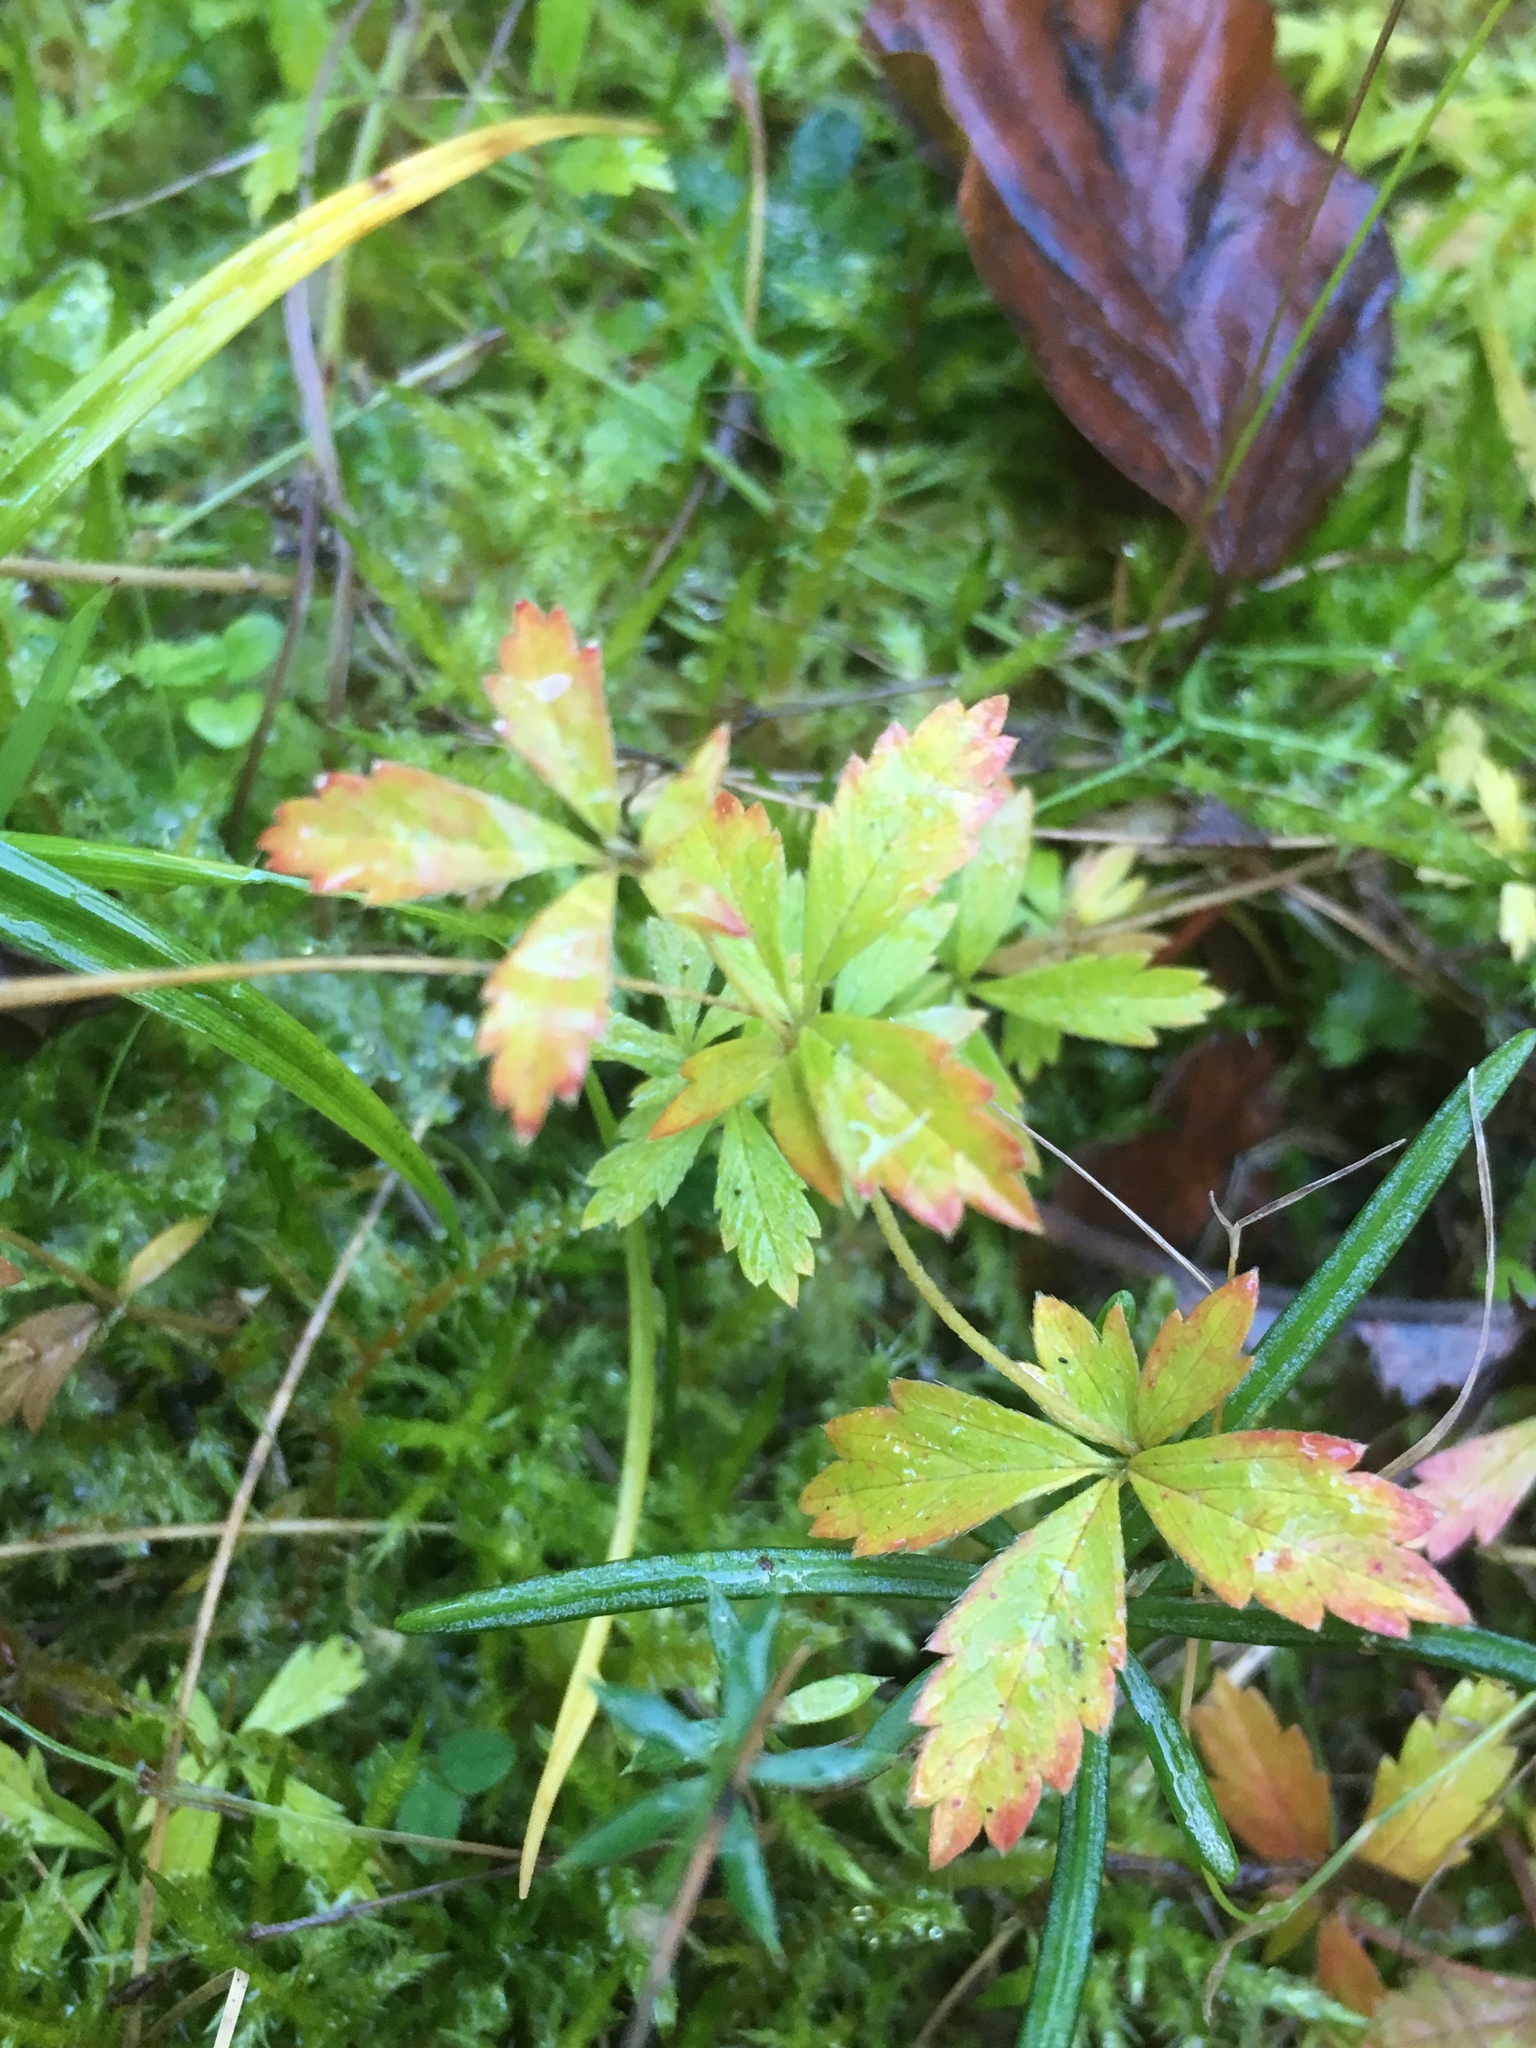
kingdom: Plantae
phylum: Tracheophyta
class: Magnoliopsida
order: Rosales
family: Rosaceae
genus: Potentilla
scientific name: Potentilla erecta
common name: Tormentil
